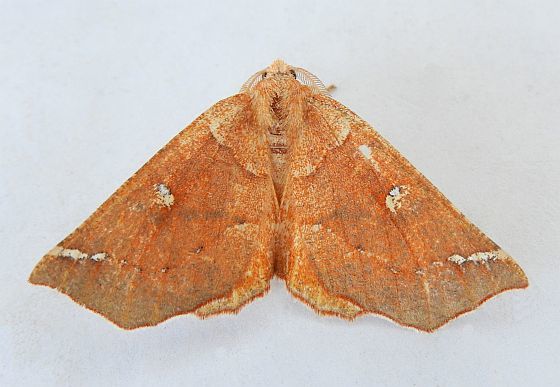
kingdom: Animalia
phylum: Arthropoda
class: Insecta
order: Lepidoptera
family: Geometridae
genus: Caripeta
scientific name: Caripeta macularia
